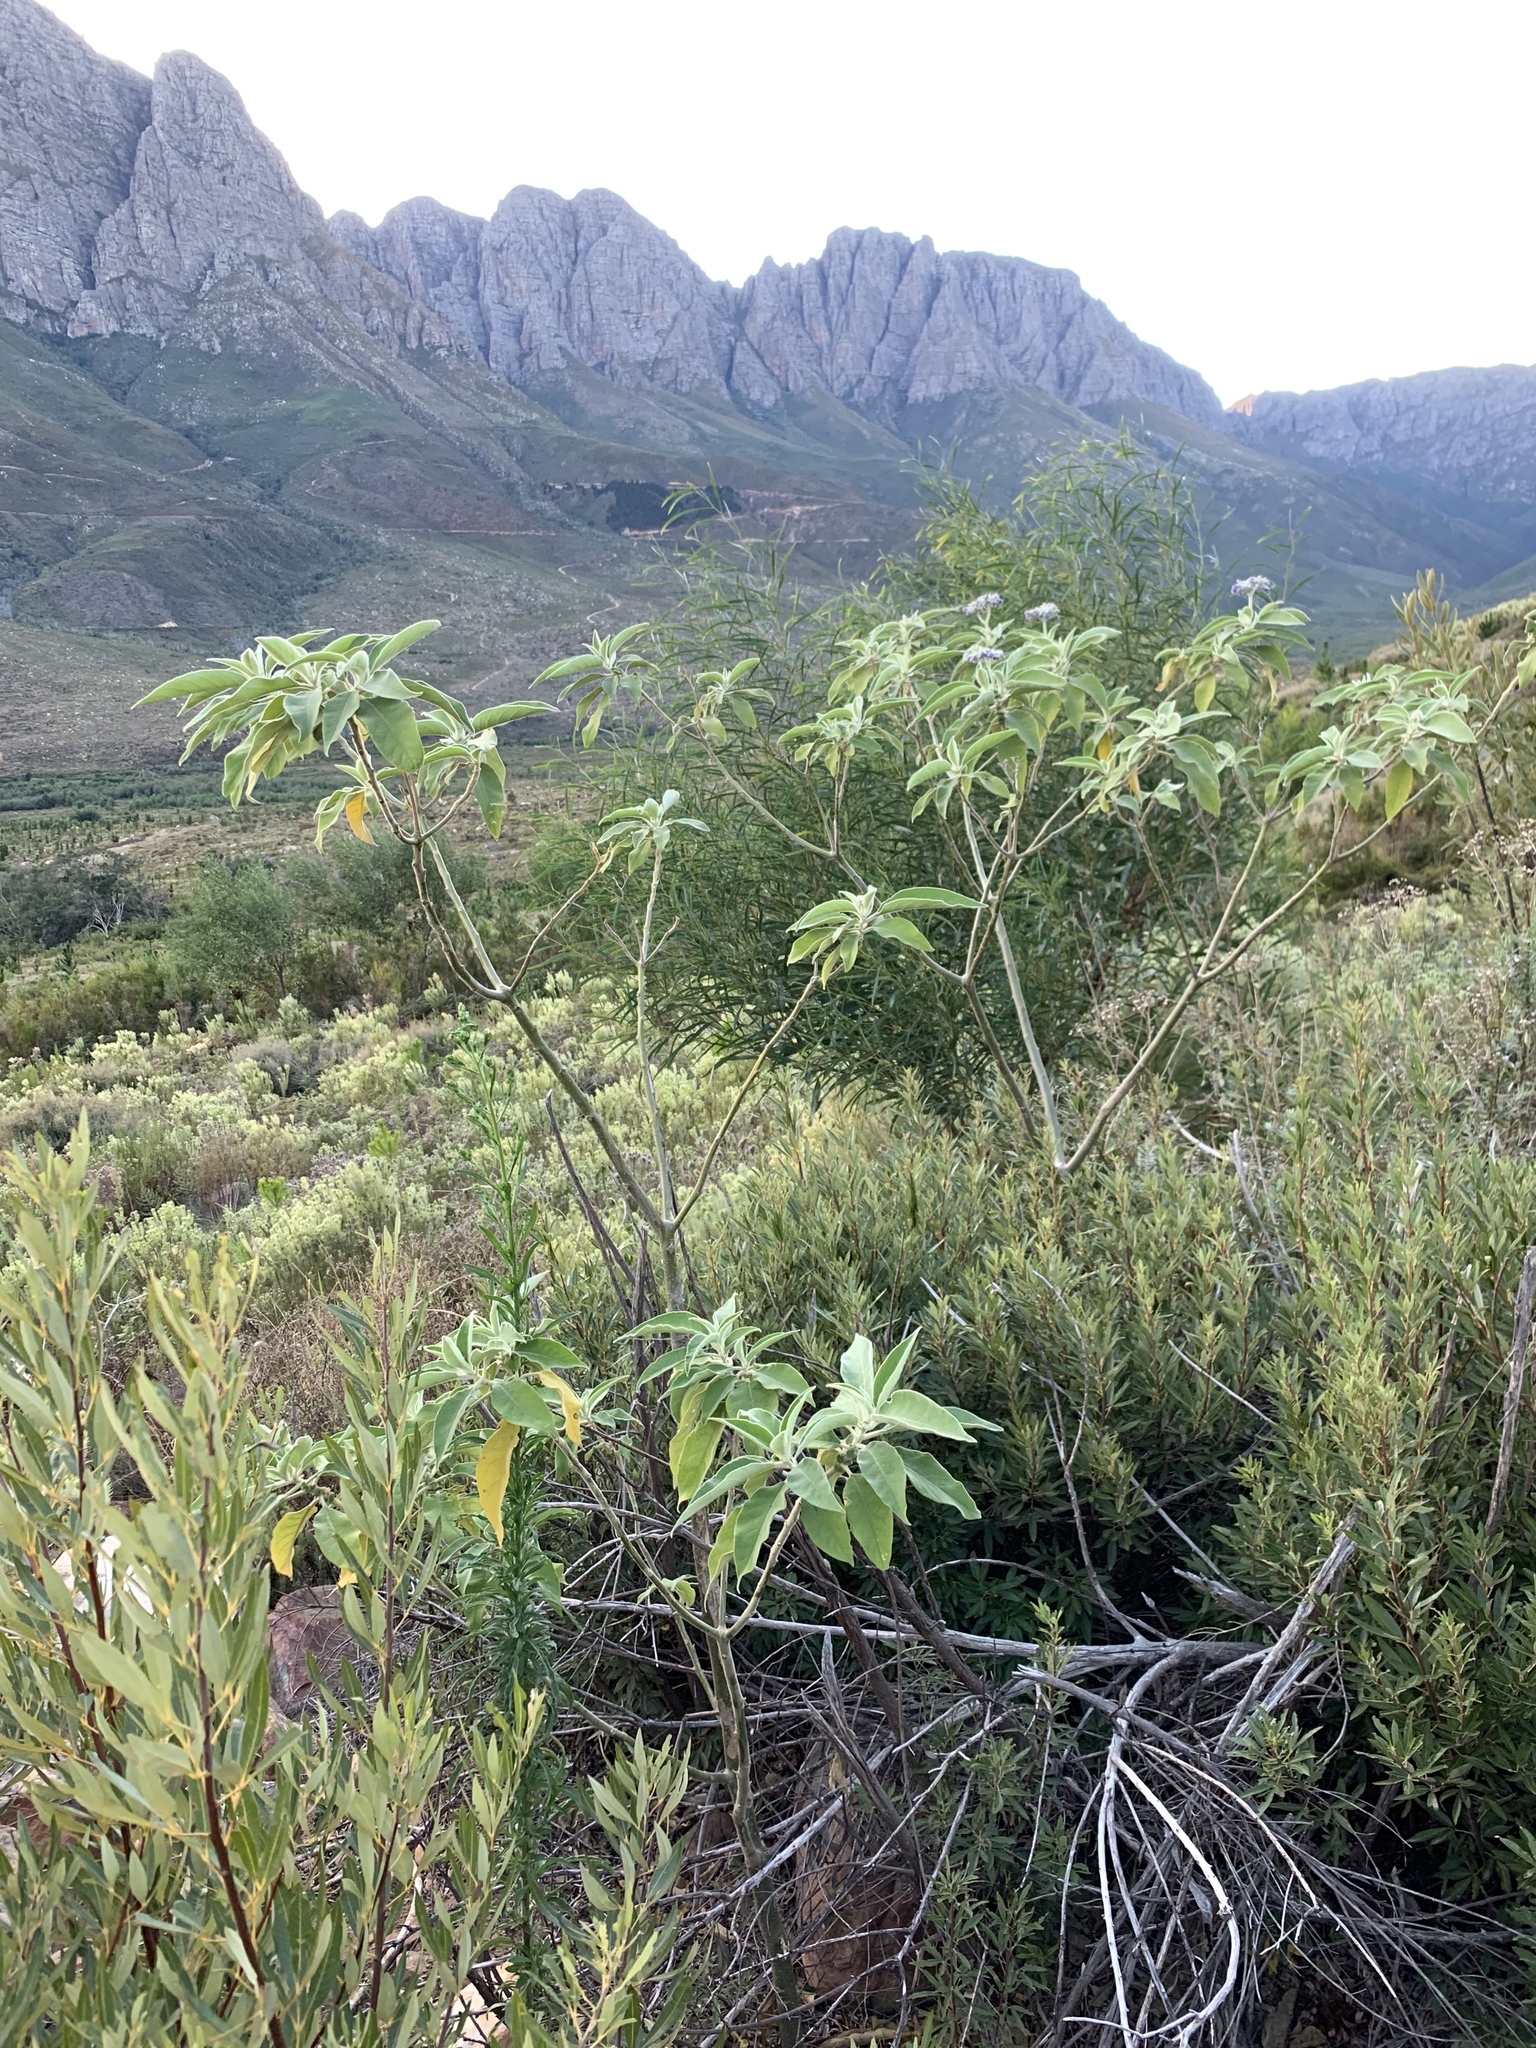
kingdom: Plantae
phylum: Tracheophyta
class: Magnoliopsida
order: Solanales
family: Solanaceae
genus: Solanum
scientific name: Solanum mauritianum
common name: Earleaf nightshade
